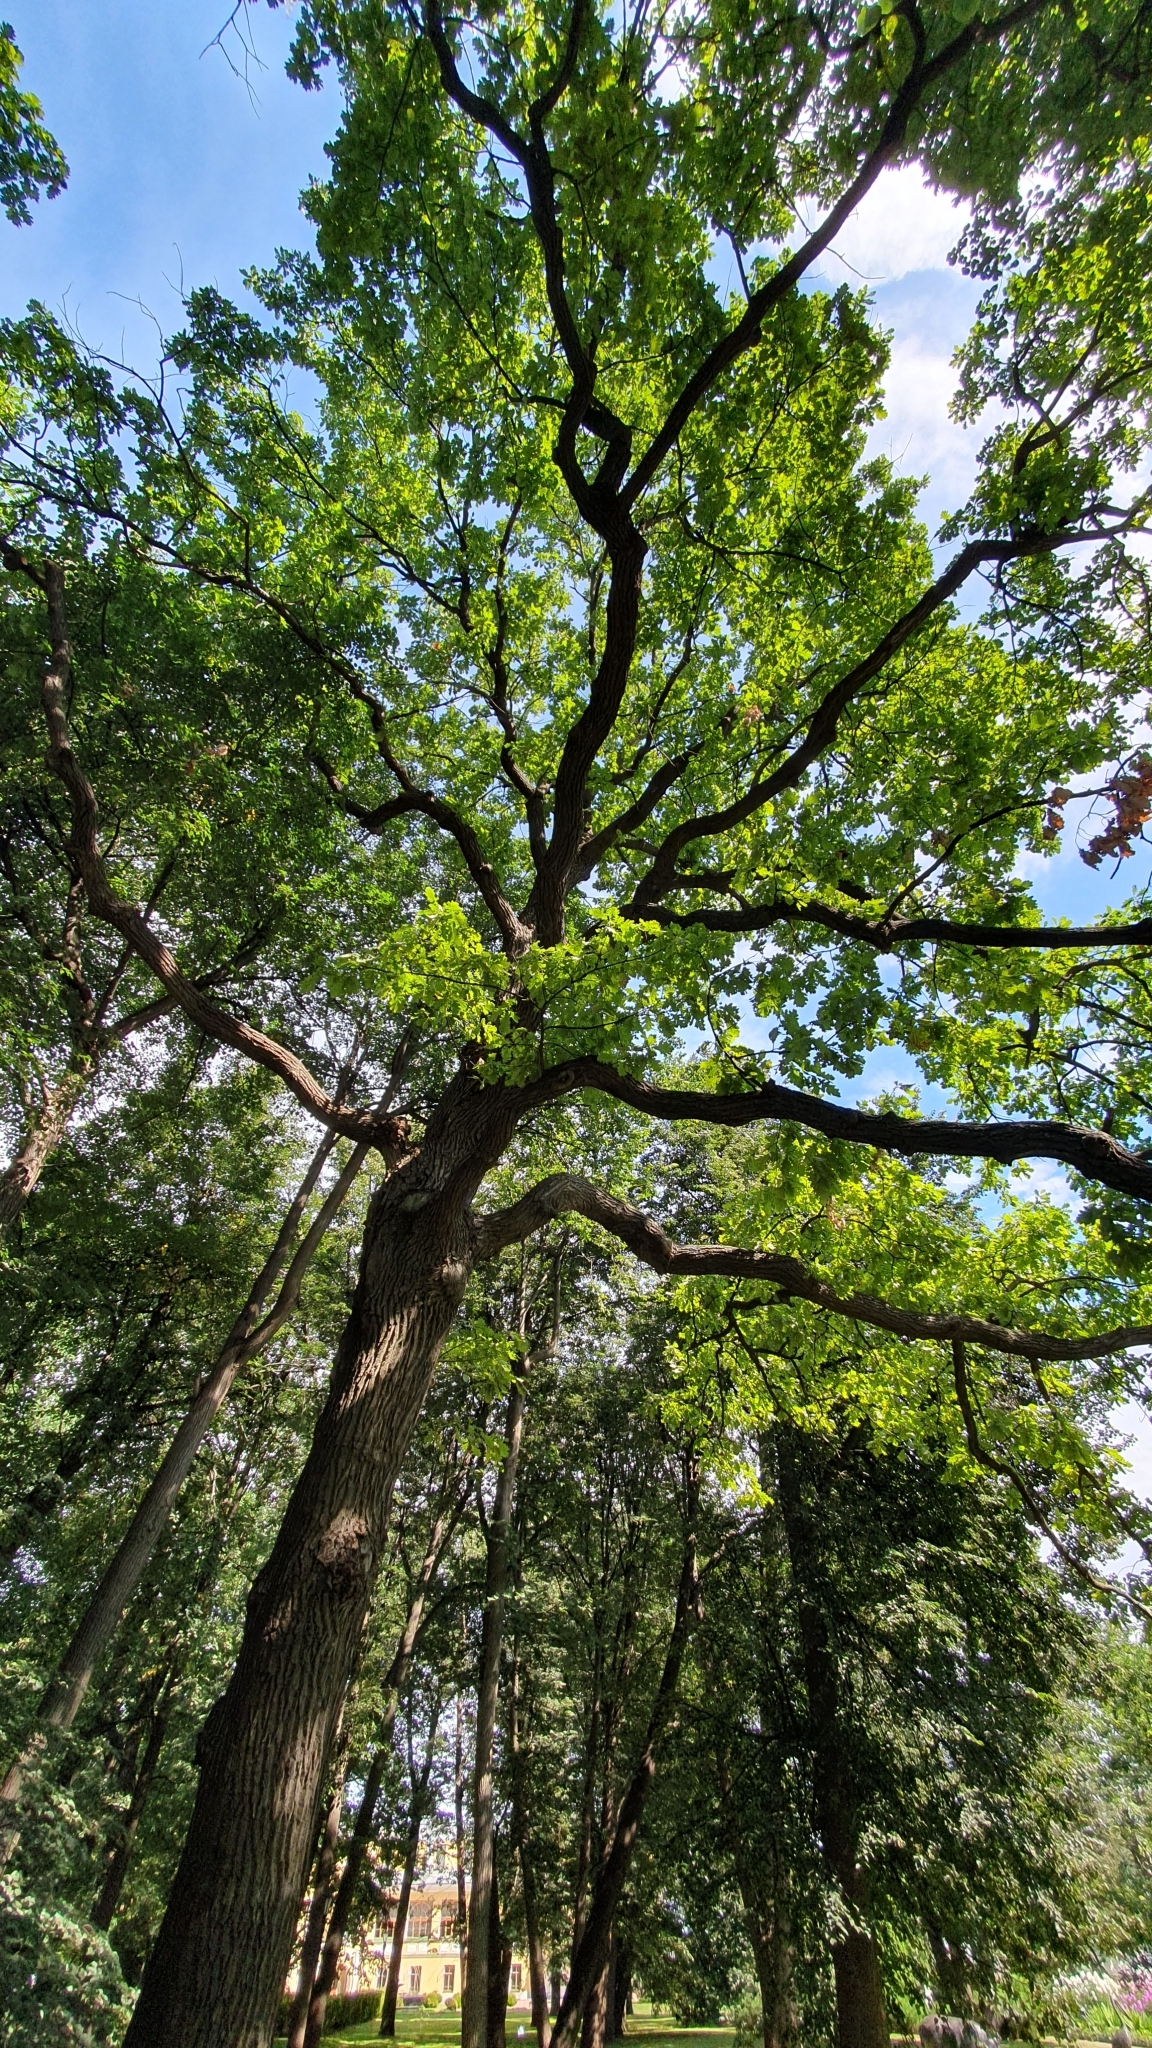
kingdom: Plantae
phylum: Tracheophyta
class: Magnoliopsida
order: Fagales
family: Fagaceae
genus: Quercus
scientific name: Quercus robur
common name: Pedunculate oak
